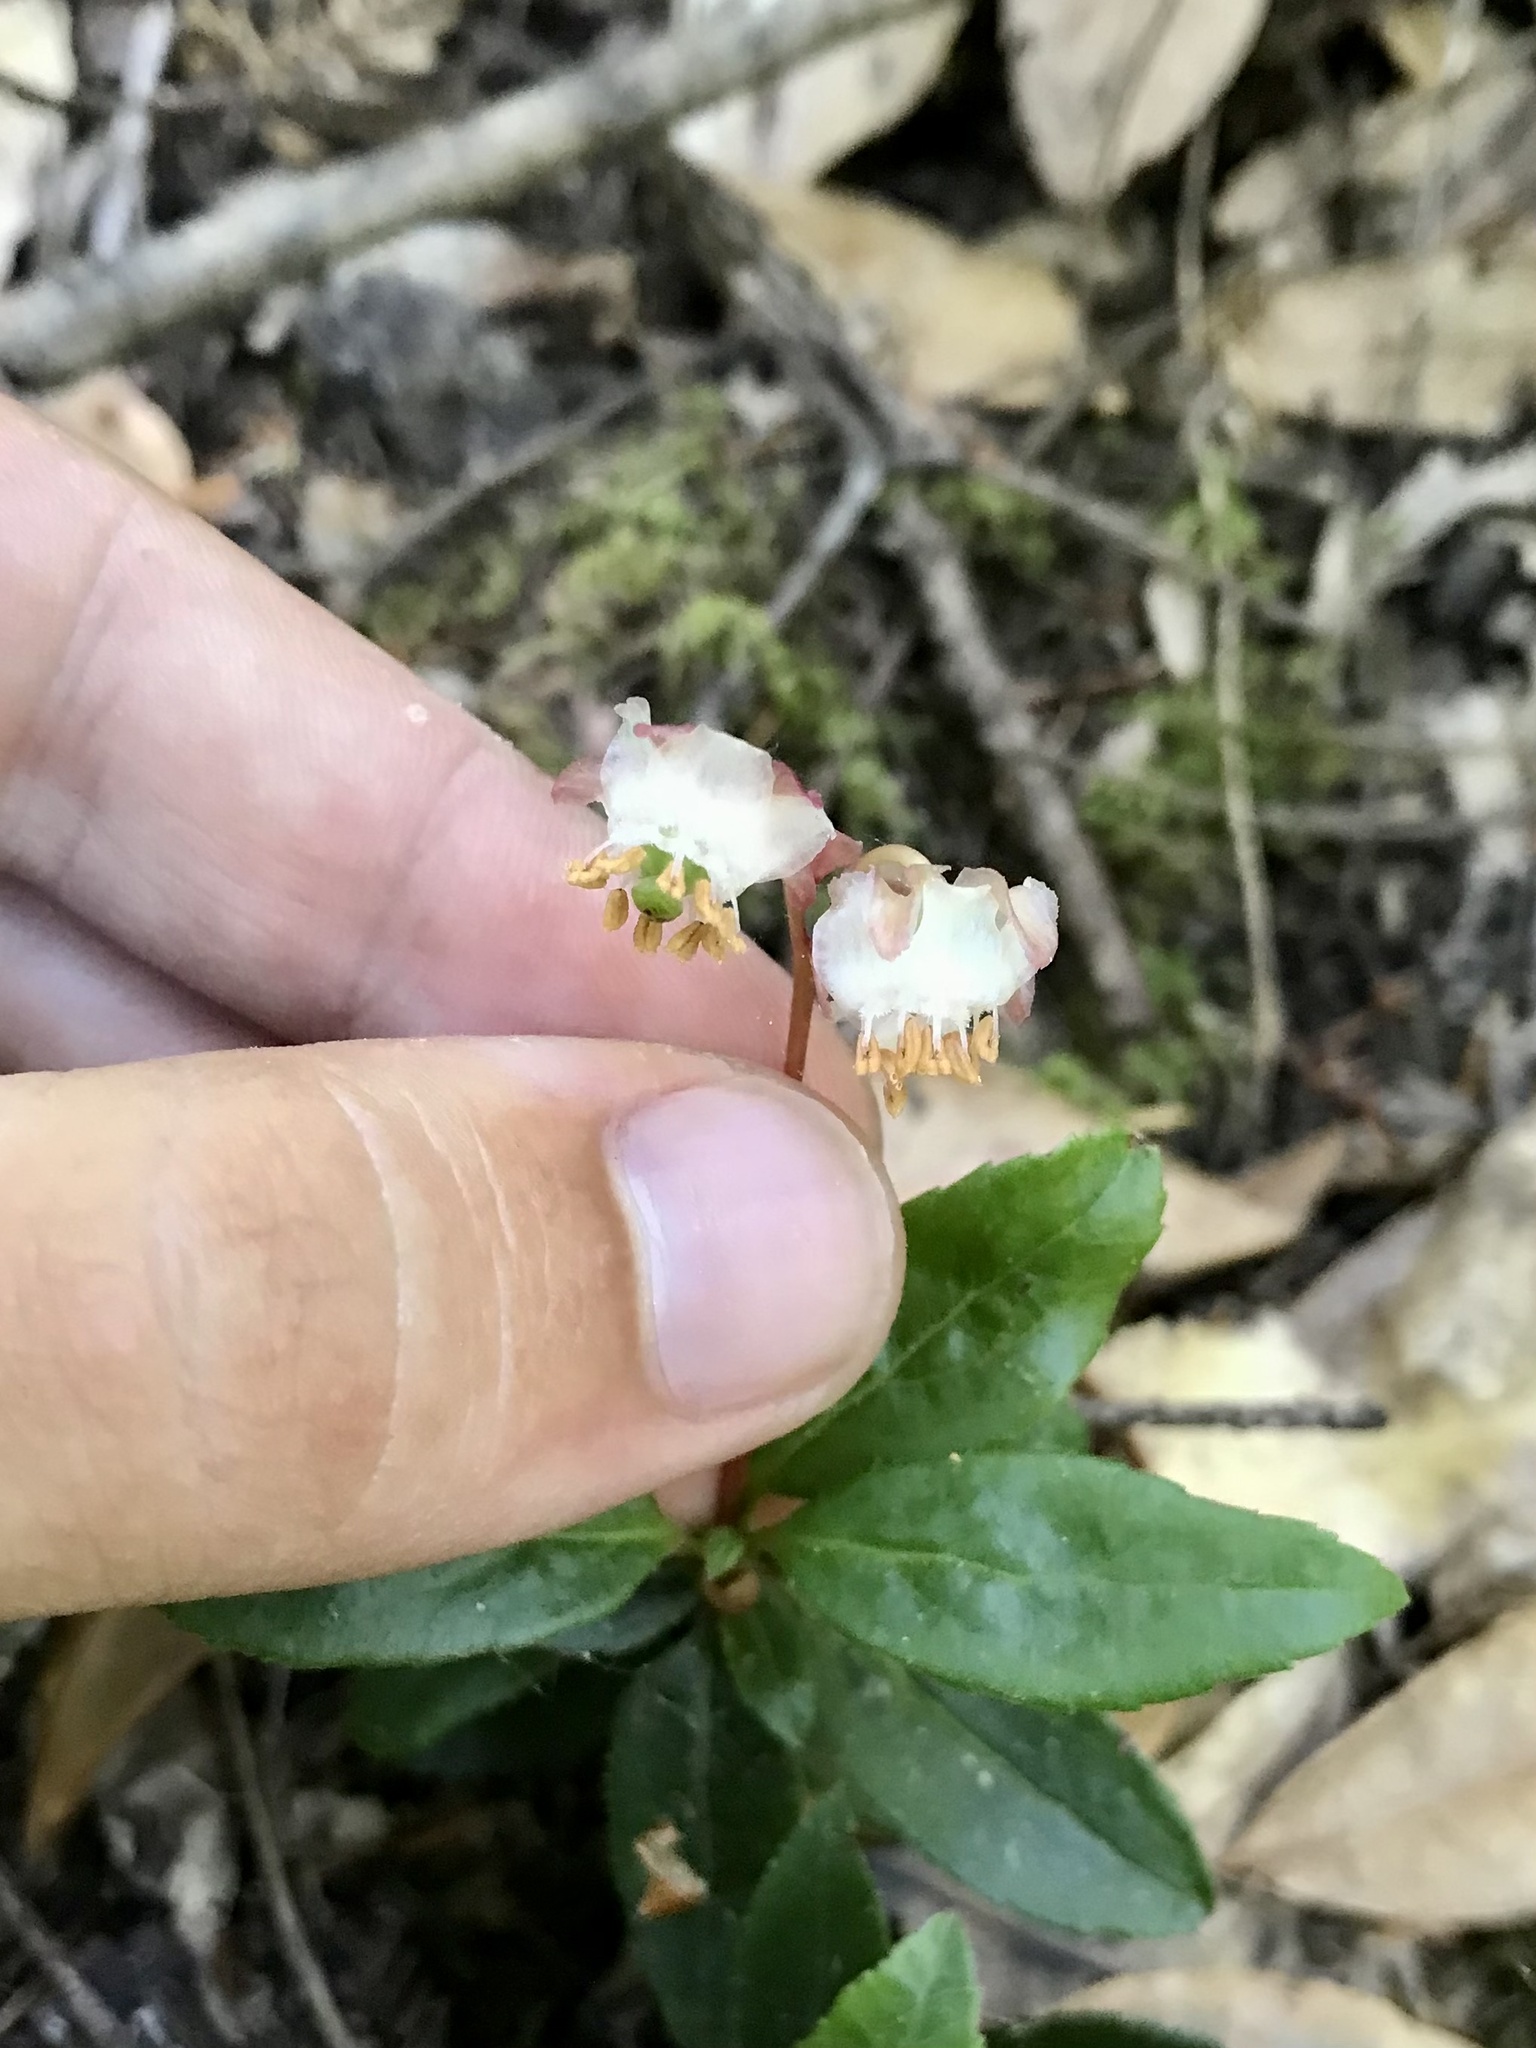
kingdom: Plantae
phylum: Tracheophyta
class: Magnoliopsida
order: Ericales
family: Ericaceae
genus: Chimaphila
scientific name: Chimaphila menziesii
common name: Menzies' pipsissewa
